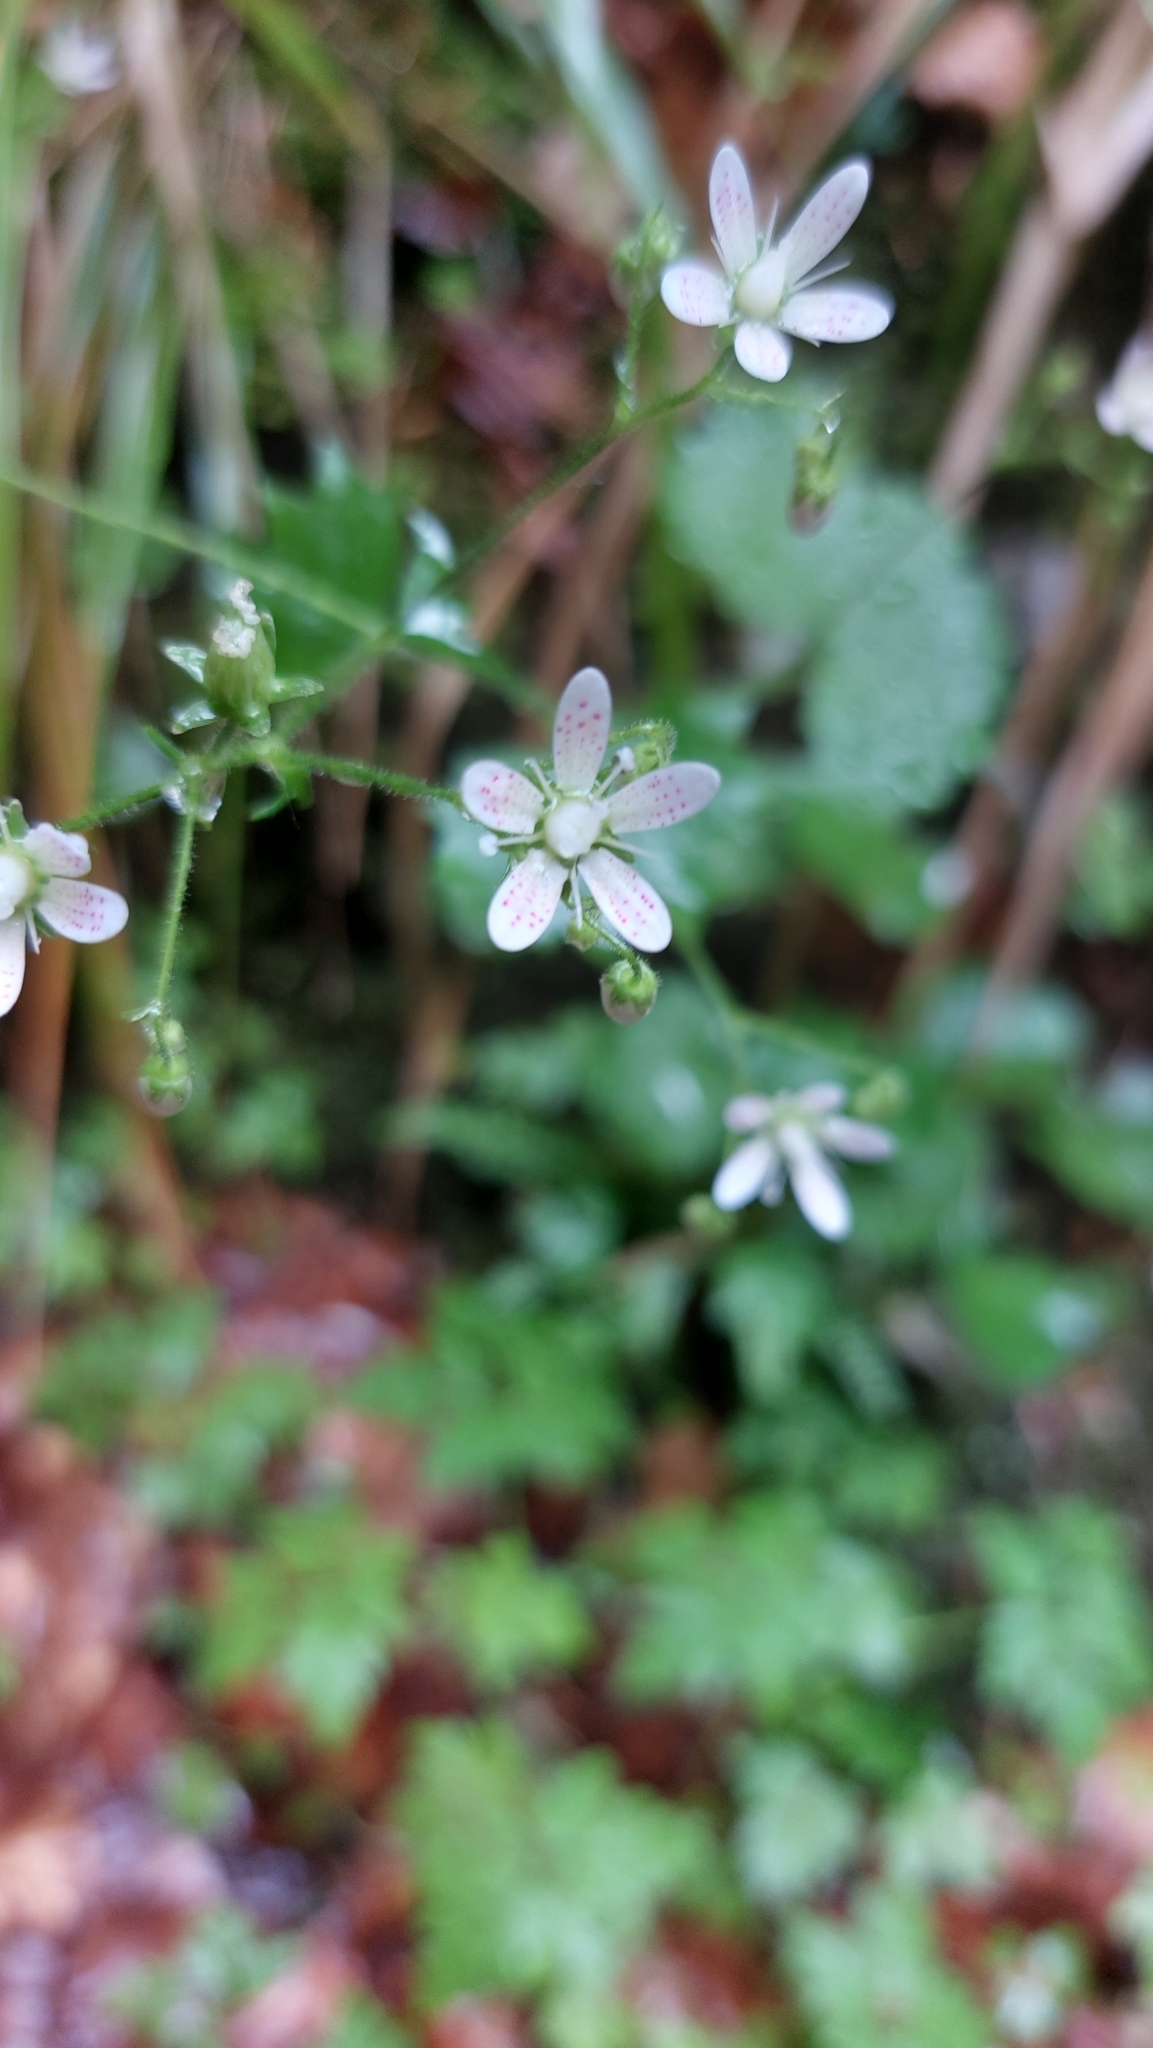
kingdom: Plantae
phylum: Tracheophyta
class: Magnoliopsida
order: Saxifragales
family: Saxifragaceae
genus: Saxifraga
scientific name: Saxifraga rotundifolia
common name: Round-leaved saxifrage
